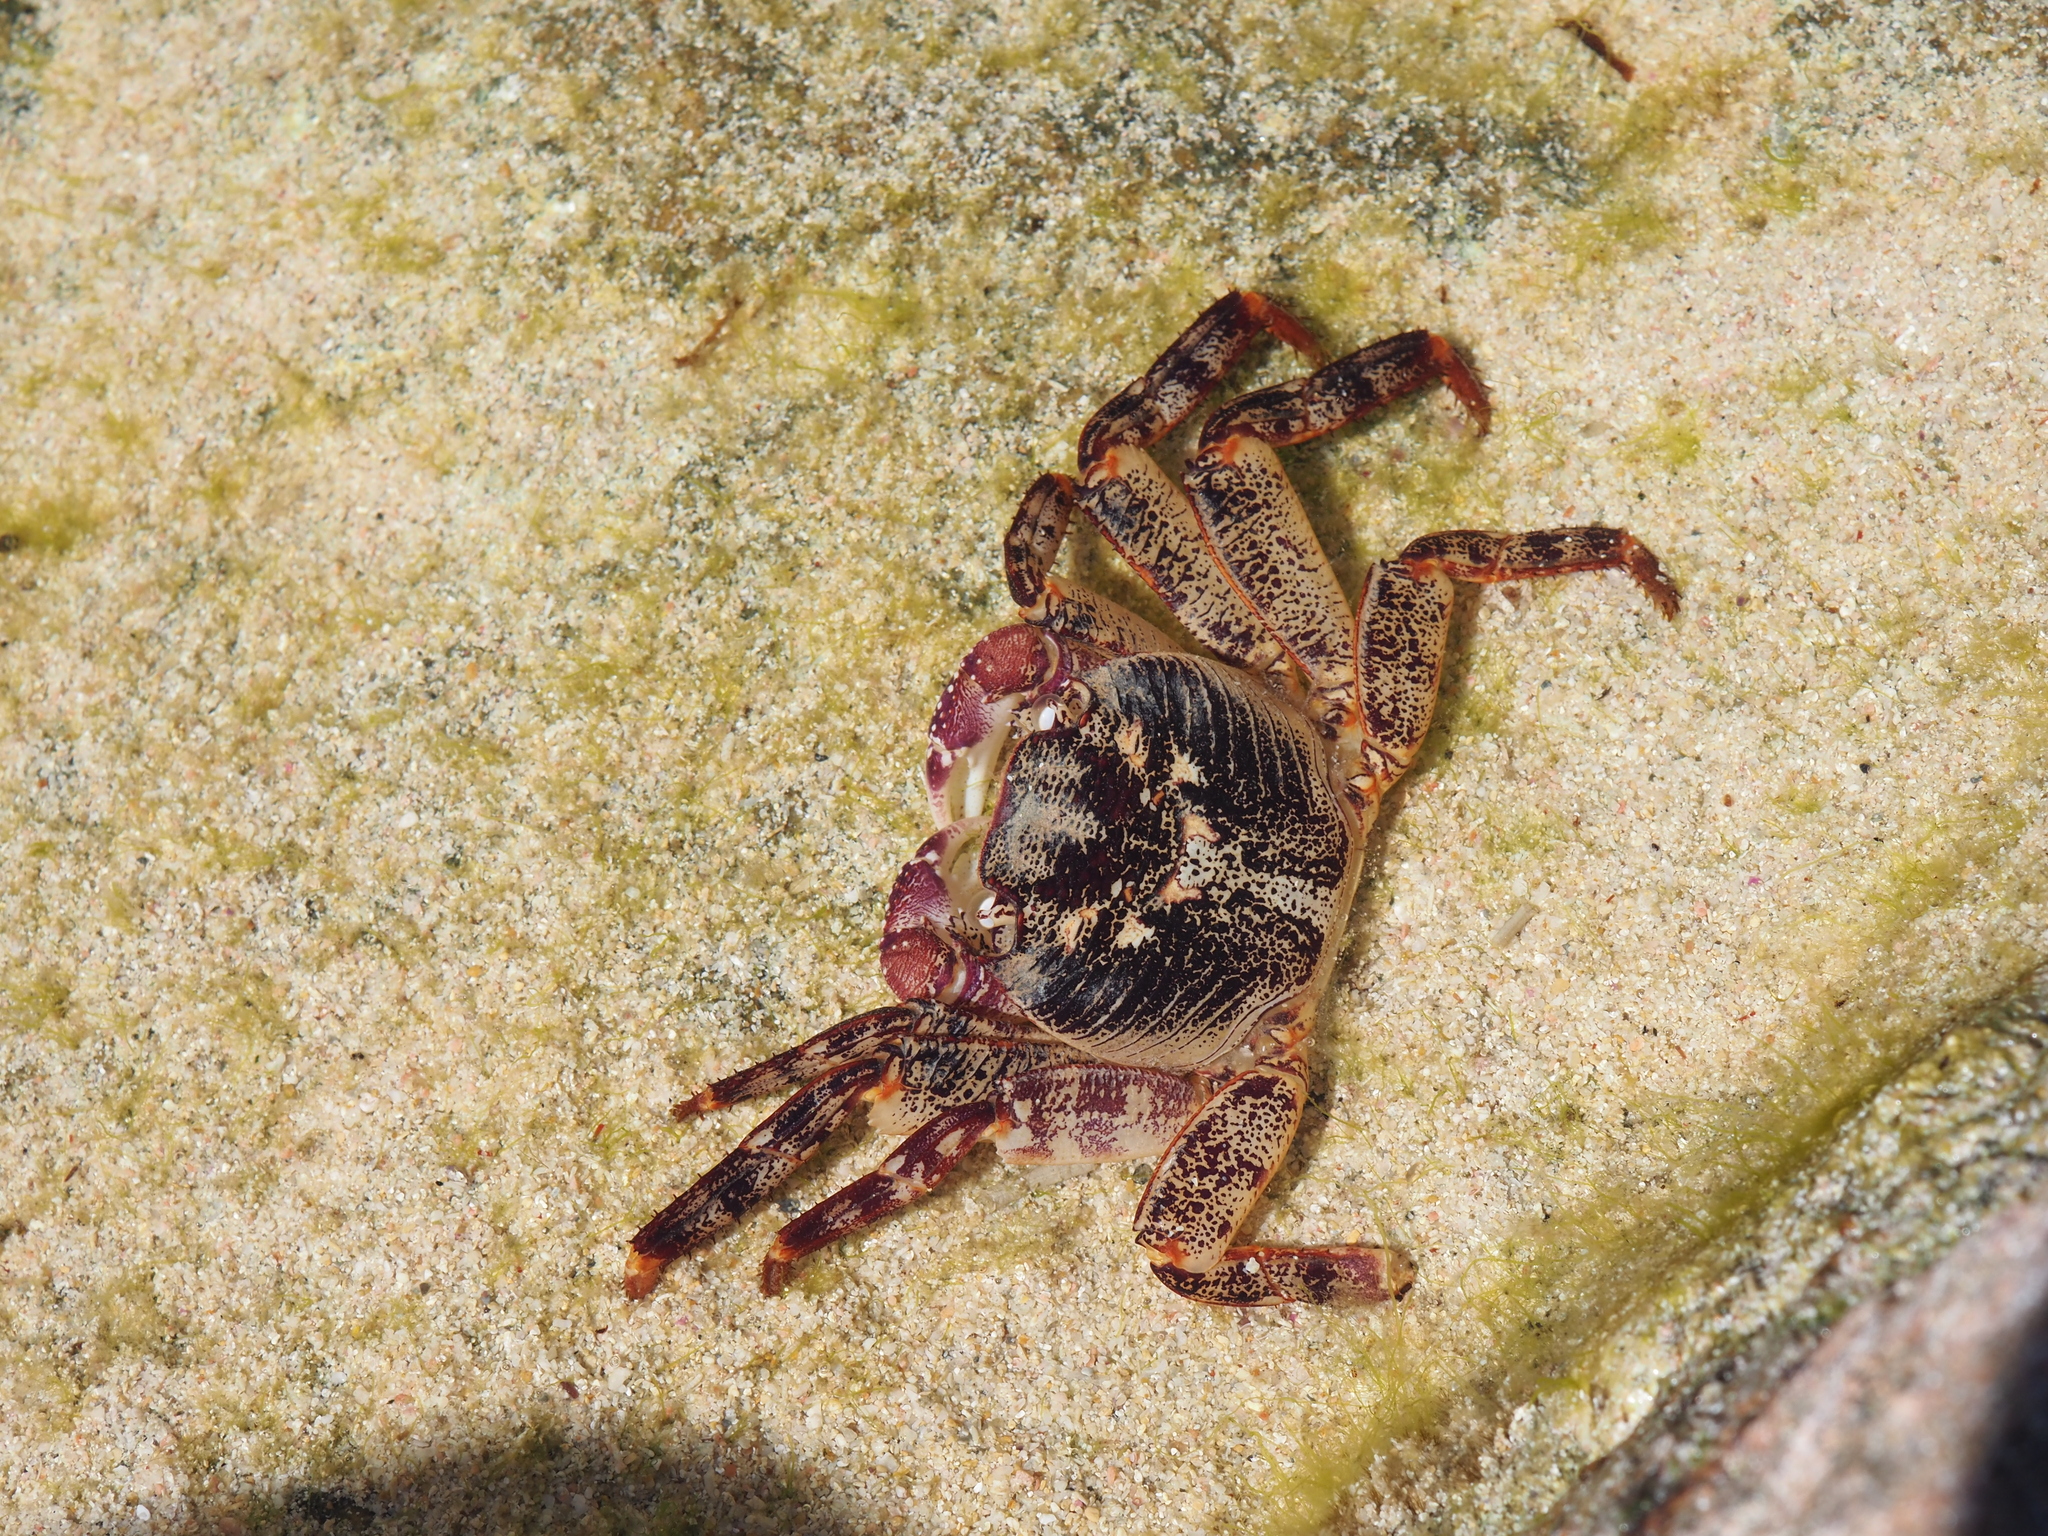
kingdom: Animalia
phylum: Arthropoda
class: Malacostraca
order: Decapoda
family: Grapsidae
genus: Leptograpsus
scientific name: Leptograpsus variegatus
